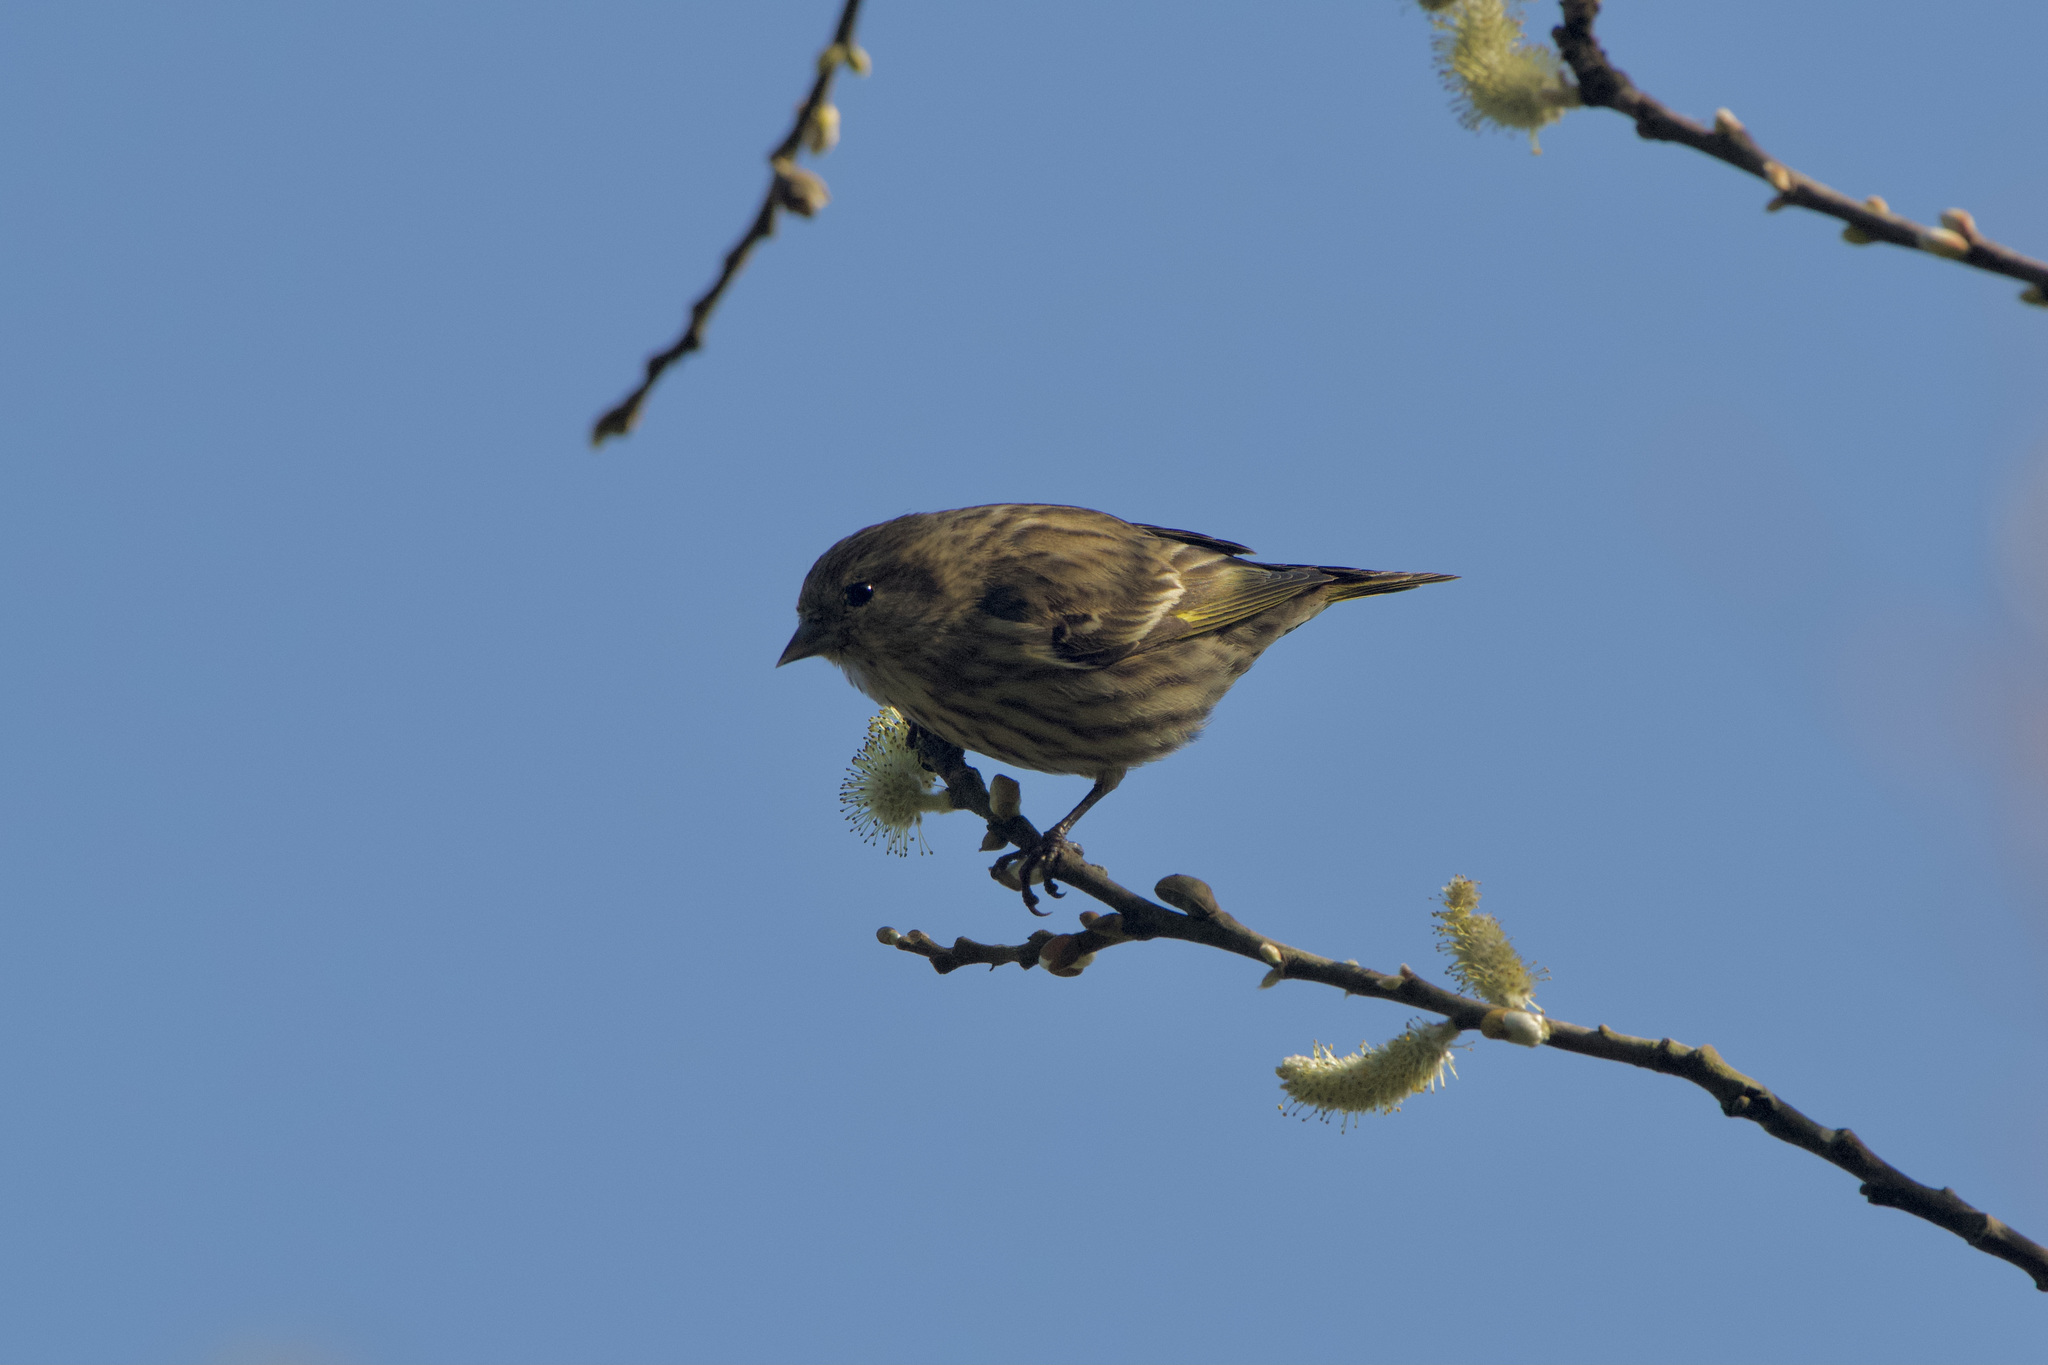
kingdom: Animalia
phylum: Chordata
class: Aves
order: Passeriformes
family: Fringillidae
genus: Spinus
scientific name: Spinus pinus
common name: Pine siskin
